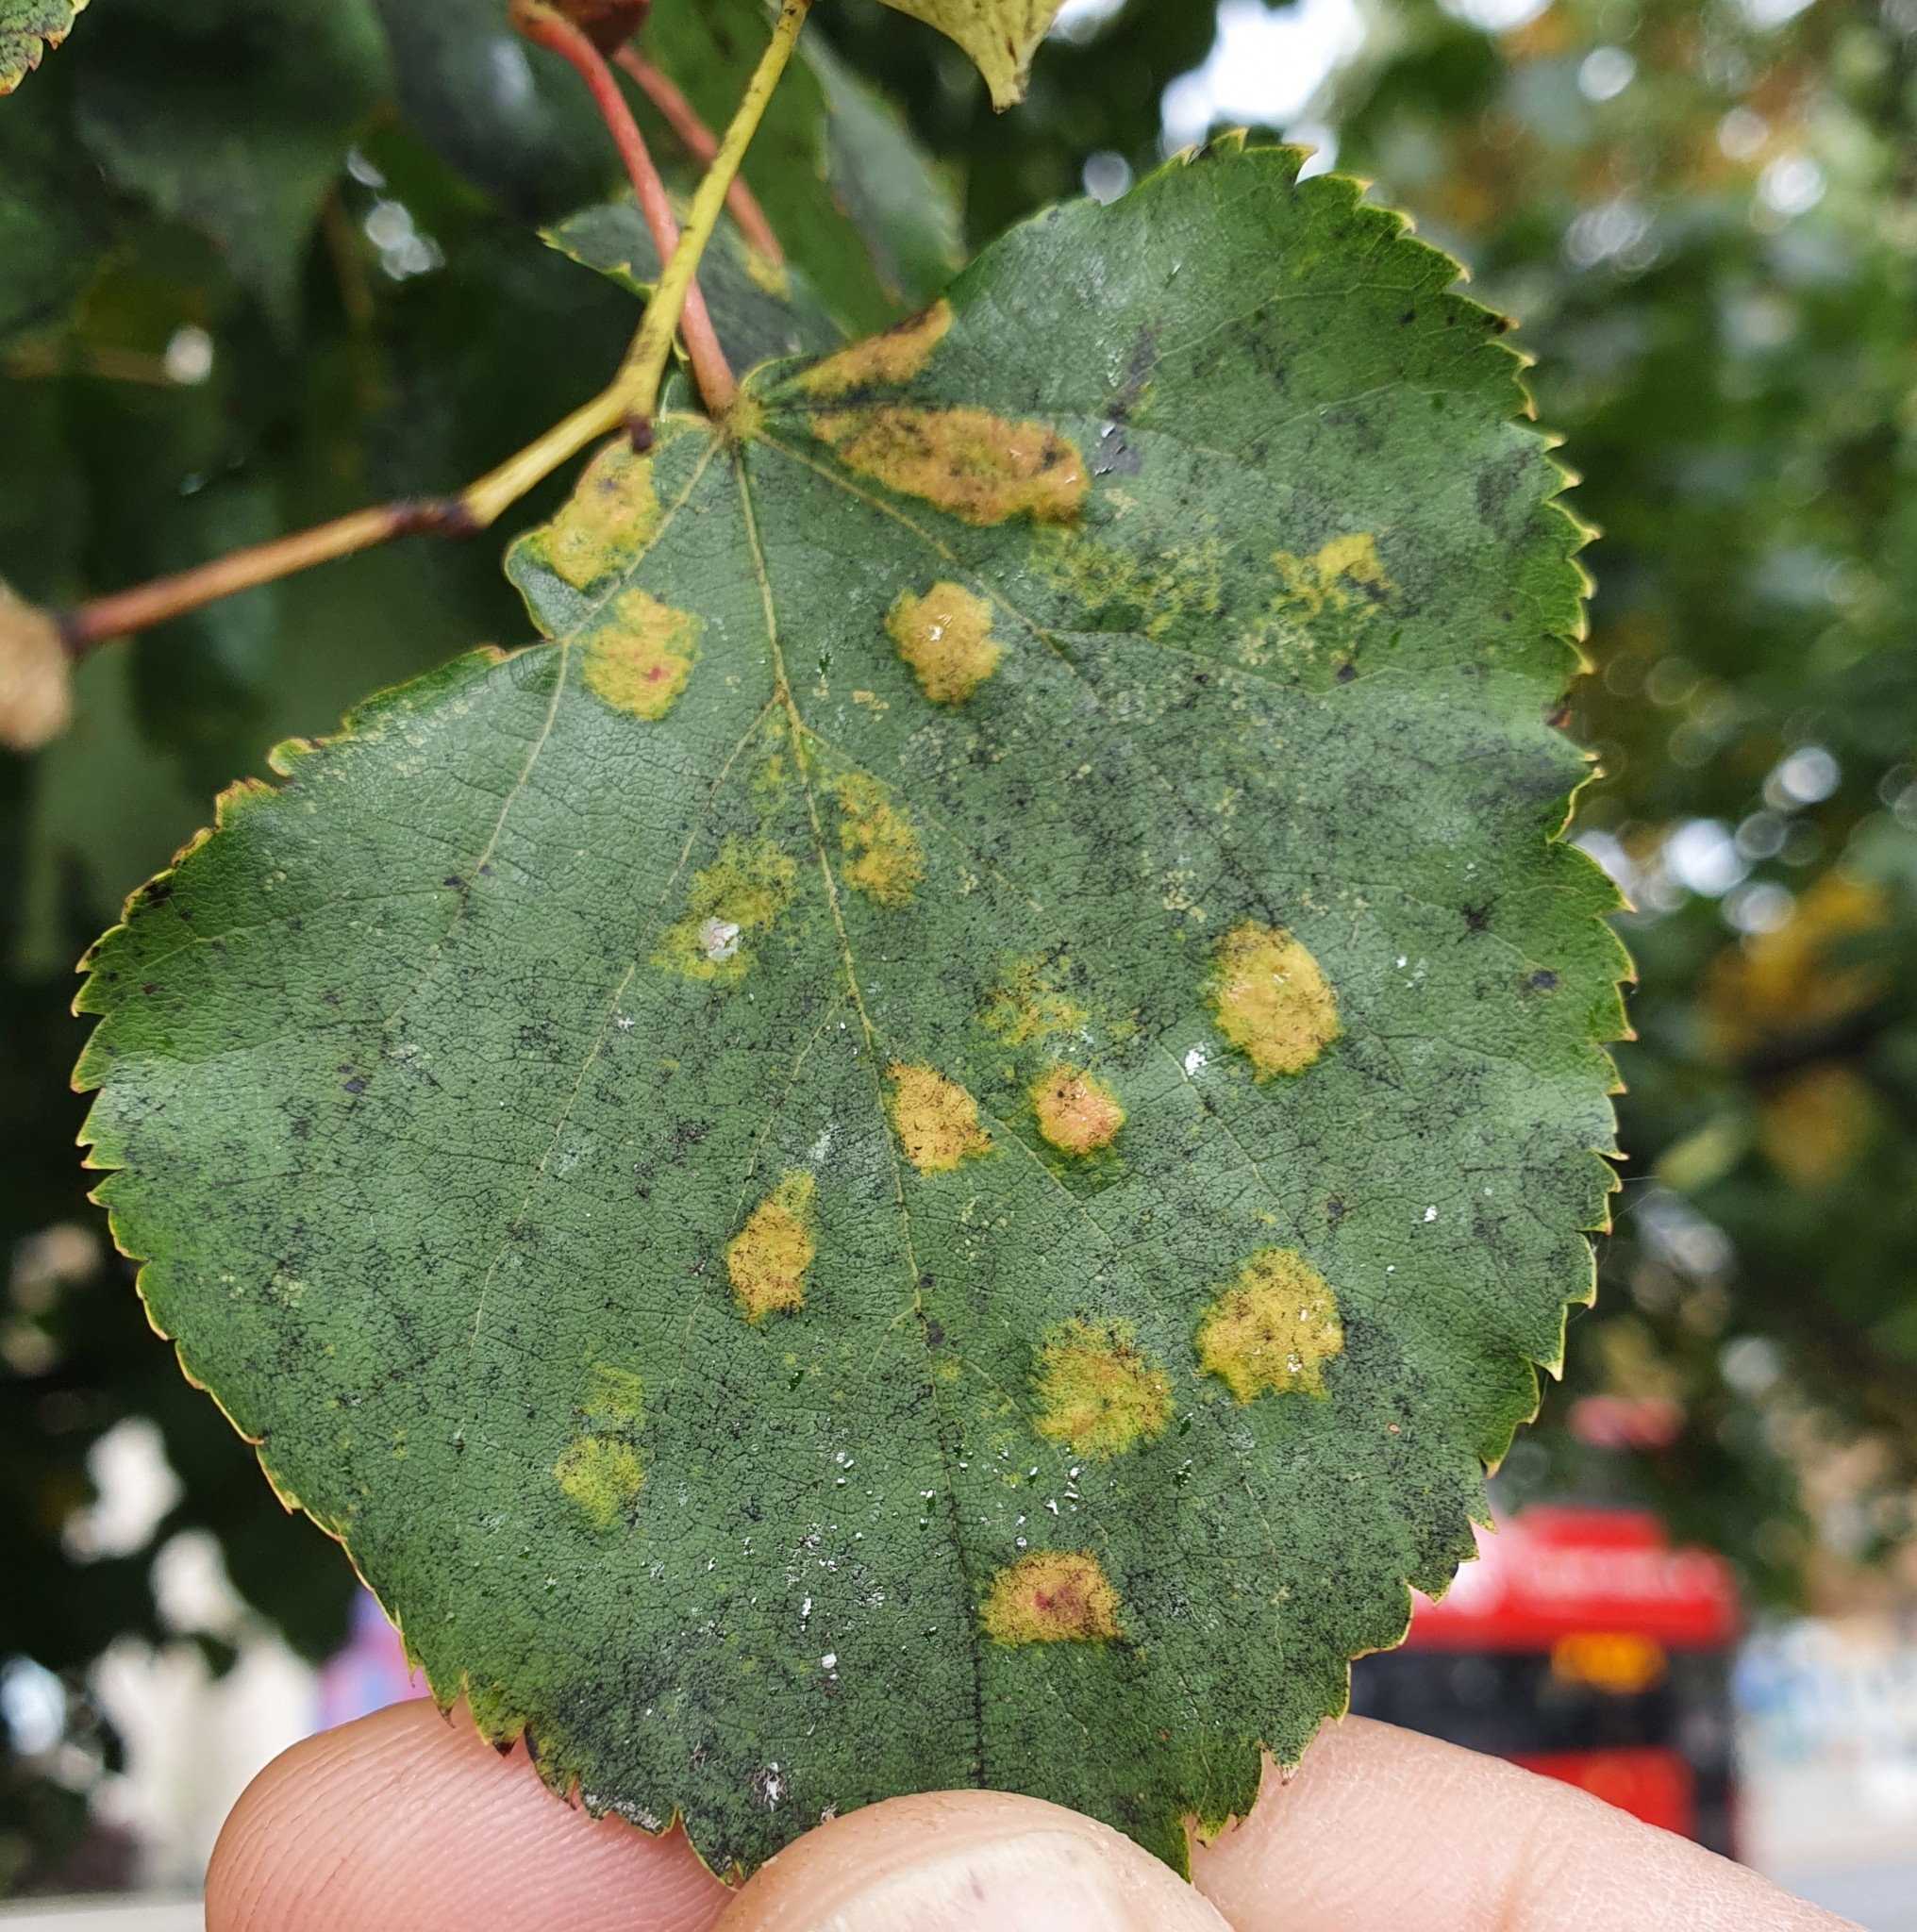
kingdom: Animalia
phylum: Arthropoda
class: Arachnida
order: Trombidiformes
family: Eriophyidae
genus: Eriophyes
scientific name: Eriophyes leiosoma
